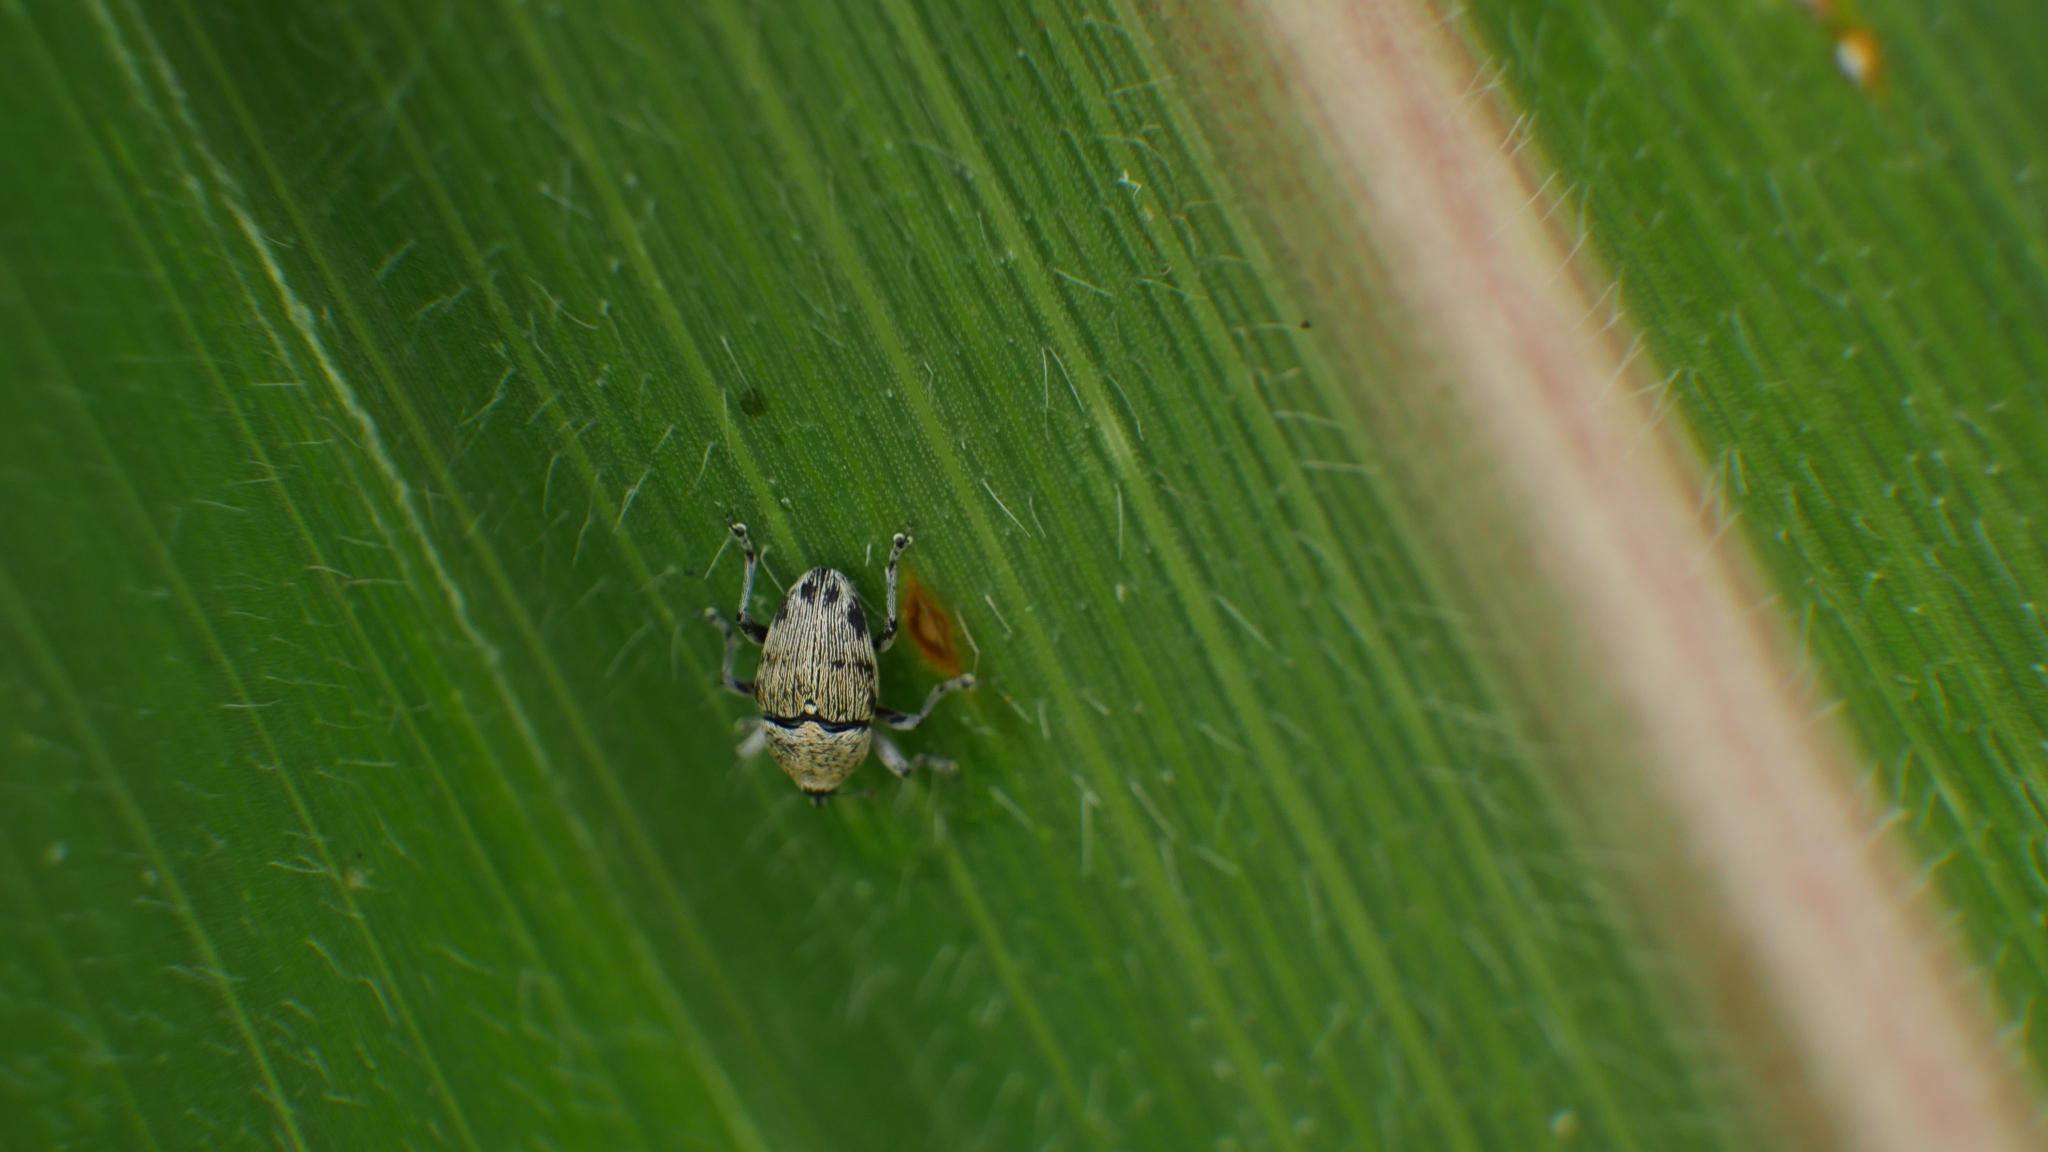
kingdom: Animalia
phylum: Arthropoda
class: Insecta
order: Coleoptera
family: Curculionidae
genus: Geraeus
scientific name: Geraeus
